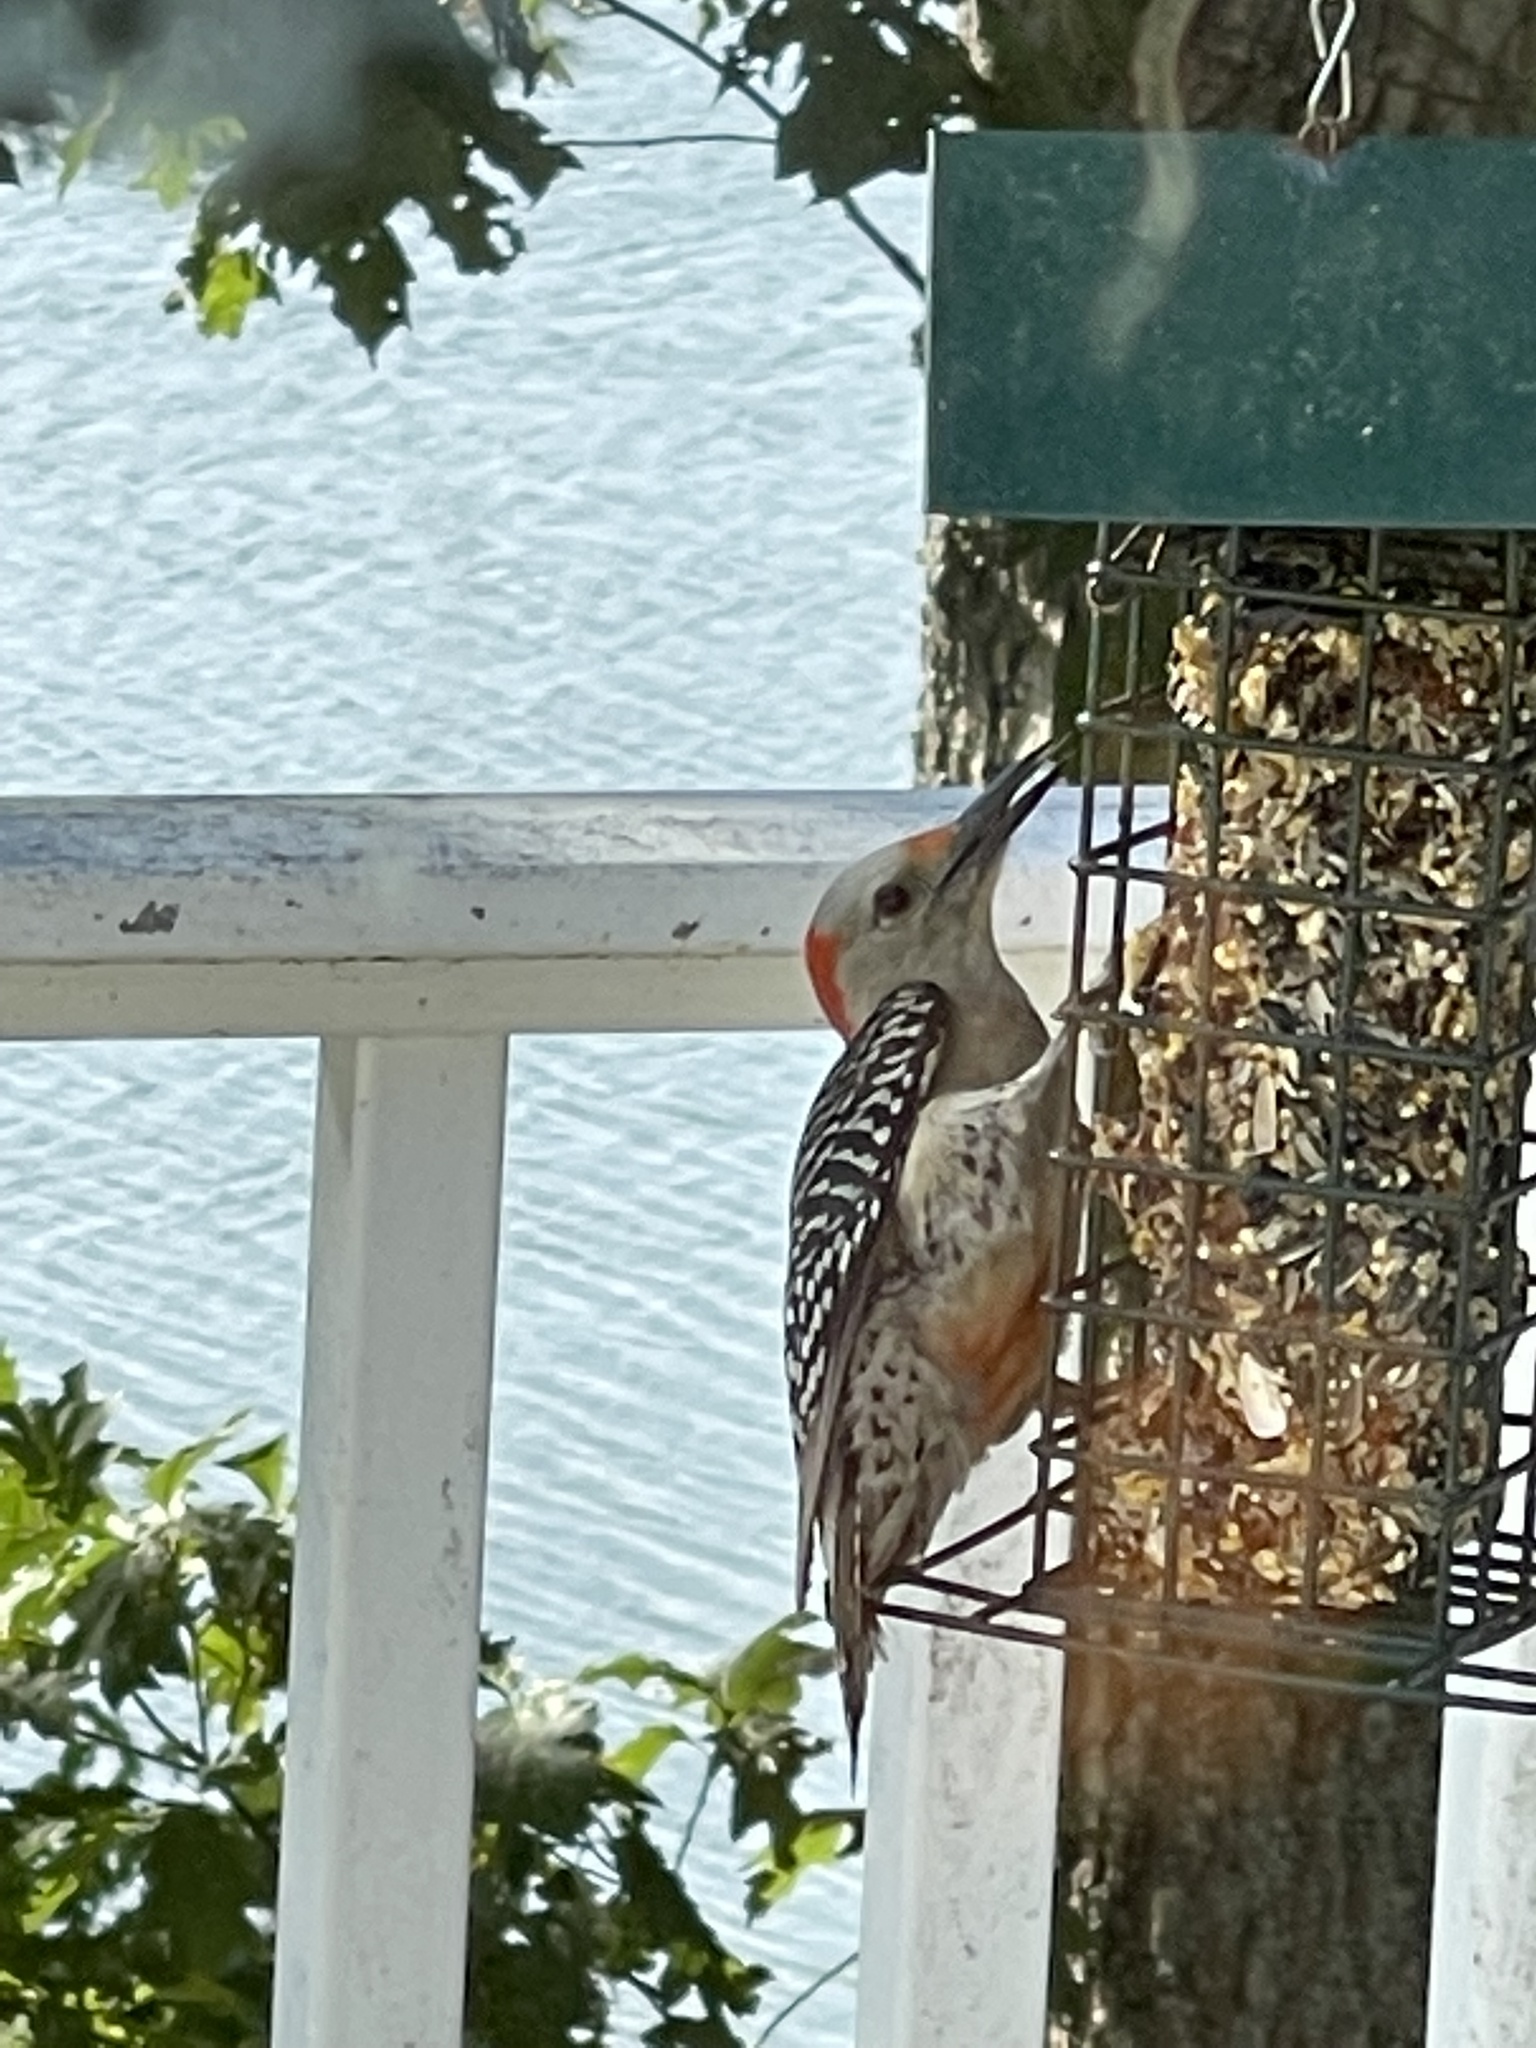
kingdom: Animalia
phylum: Chordata
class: Aves
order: Piciformes
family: Picidae
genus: Melanerpes
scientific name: Melanerpes carolinus
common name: Red-bellied woodpecker
